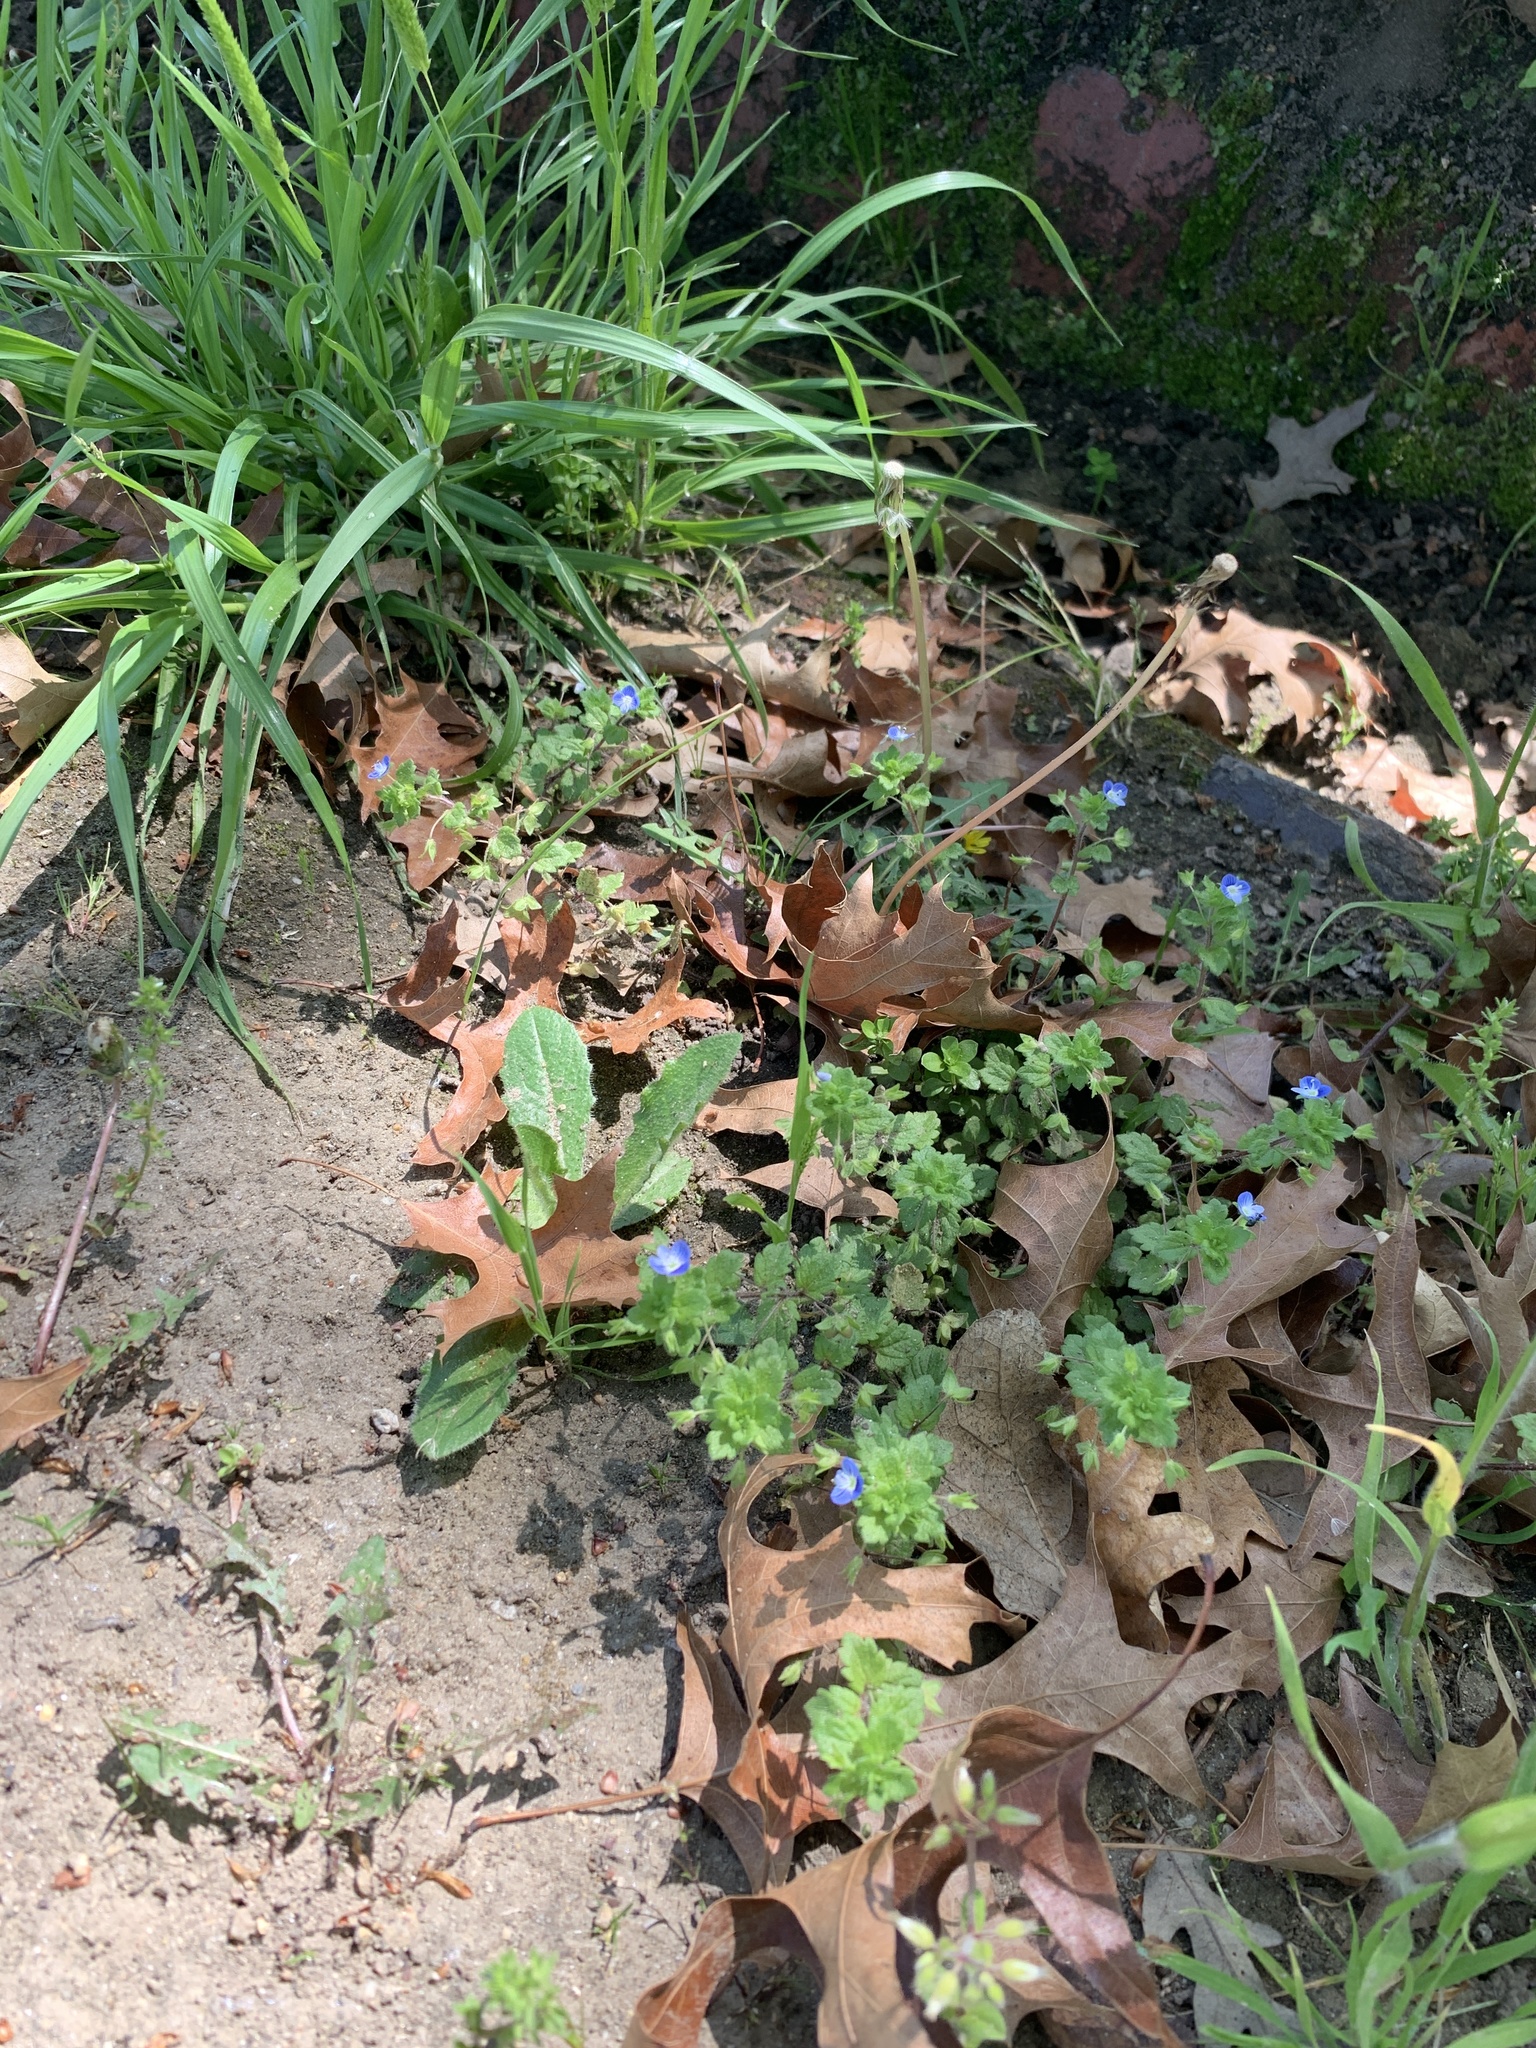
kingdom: Plantae
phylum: Tracheophyta
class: Magnoliopsida
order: Lamiales
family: Plantaginaceae
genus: Veronica
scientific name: Veronica persica
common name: Common field-speedwell
